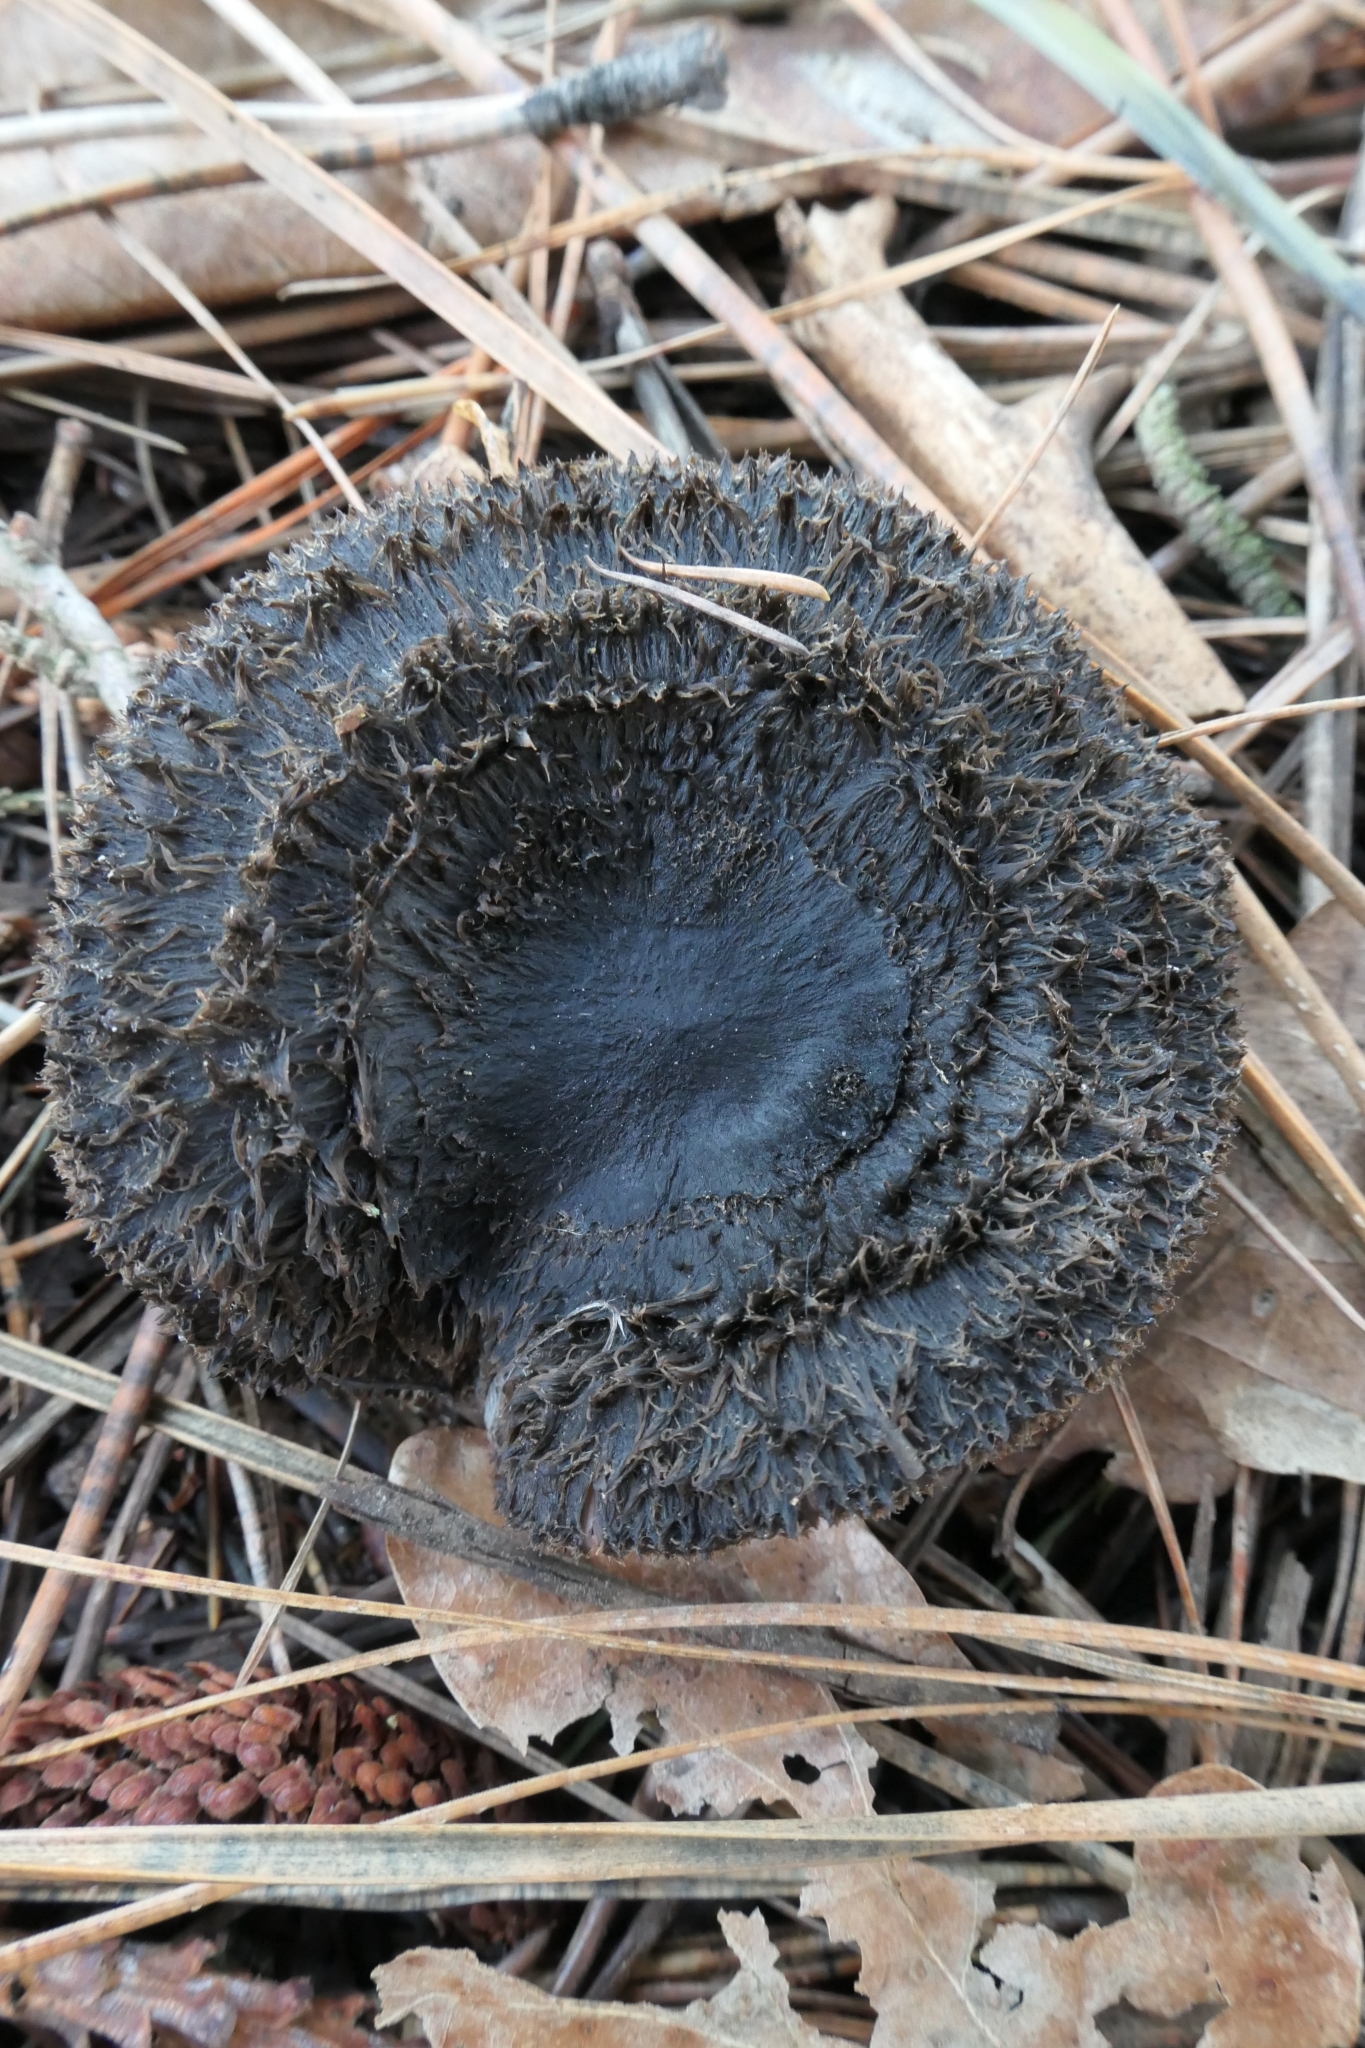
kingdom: Fungi
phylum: Basidiomycota
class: Agaricomycetes
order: Agaricales
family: Tricholomataceae
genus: Collybia
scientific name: Collybia
